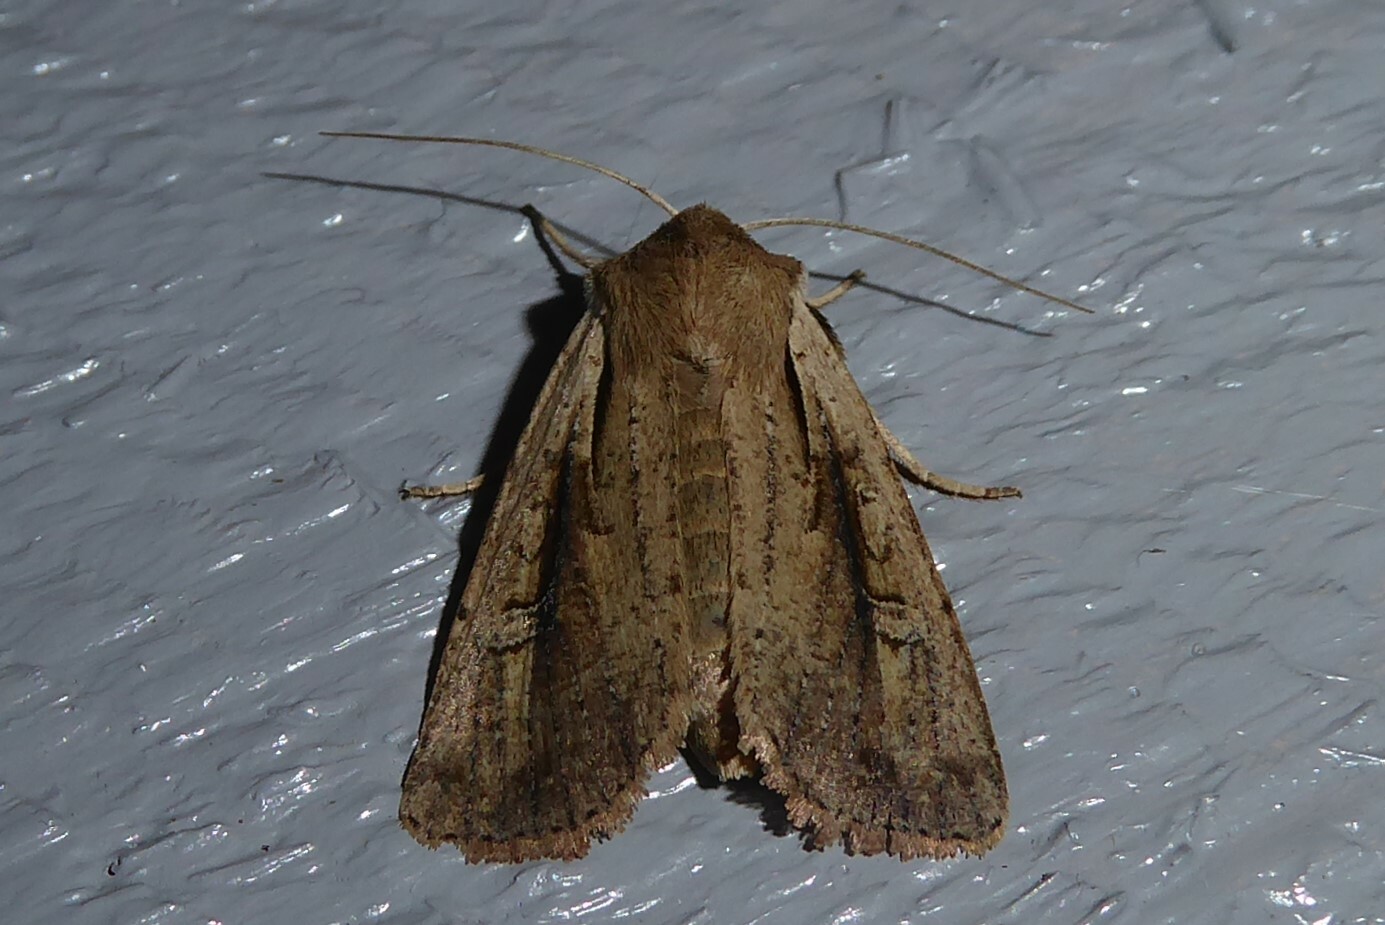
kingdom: Animalia
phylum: Arthropoda
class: Insecta
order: Lepidoptera
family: Noctuidae
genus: Ichneutica
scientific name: Ichneutica atristriga
